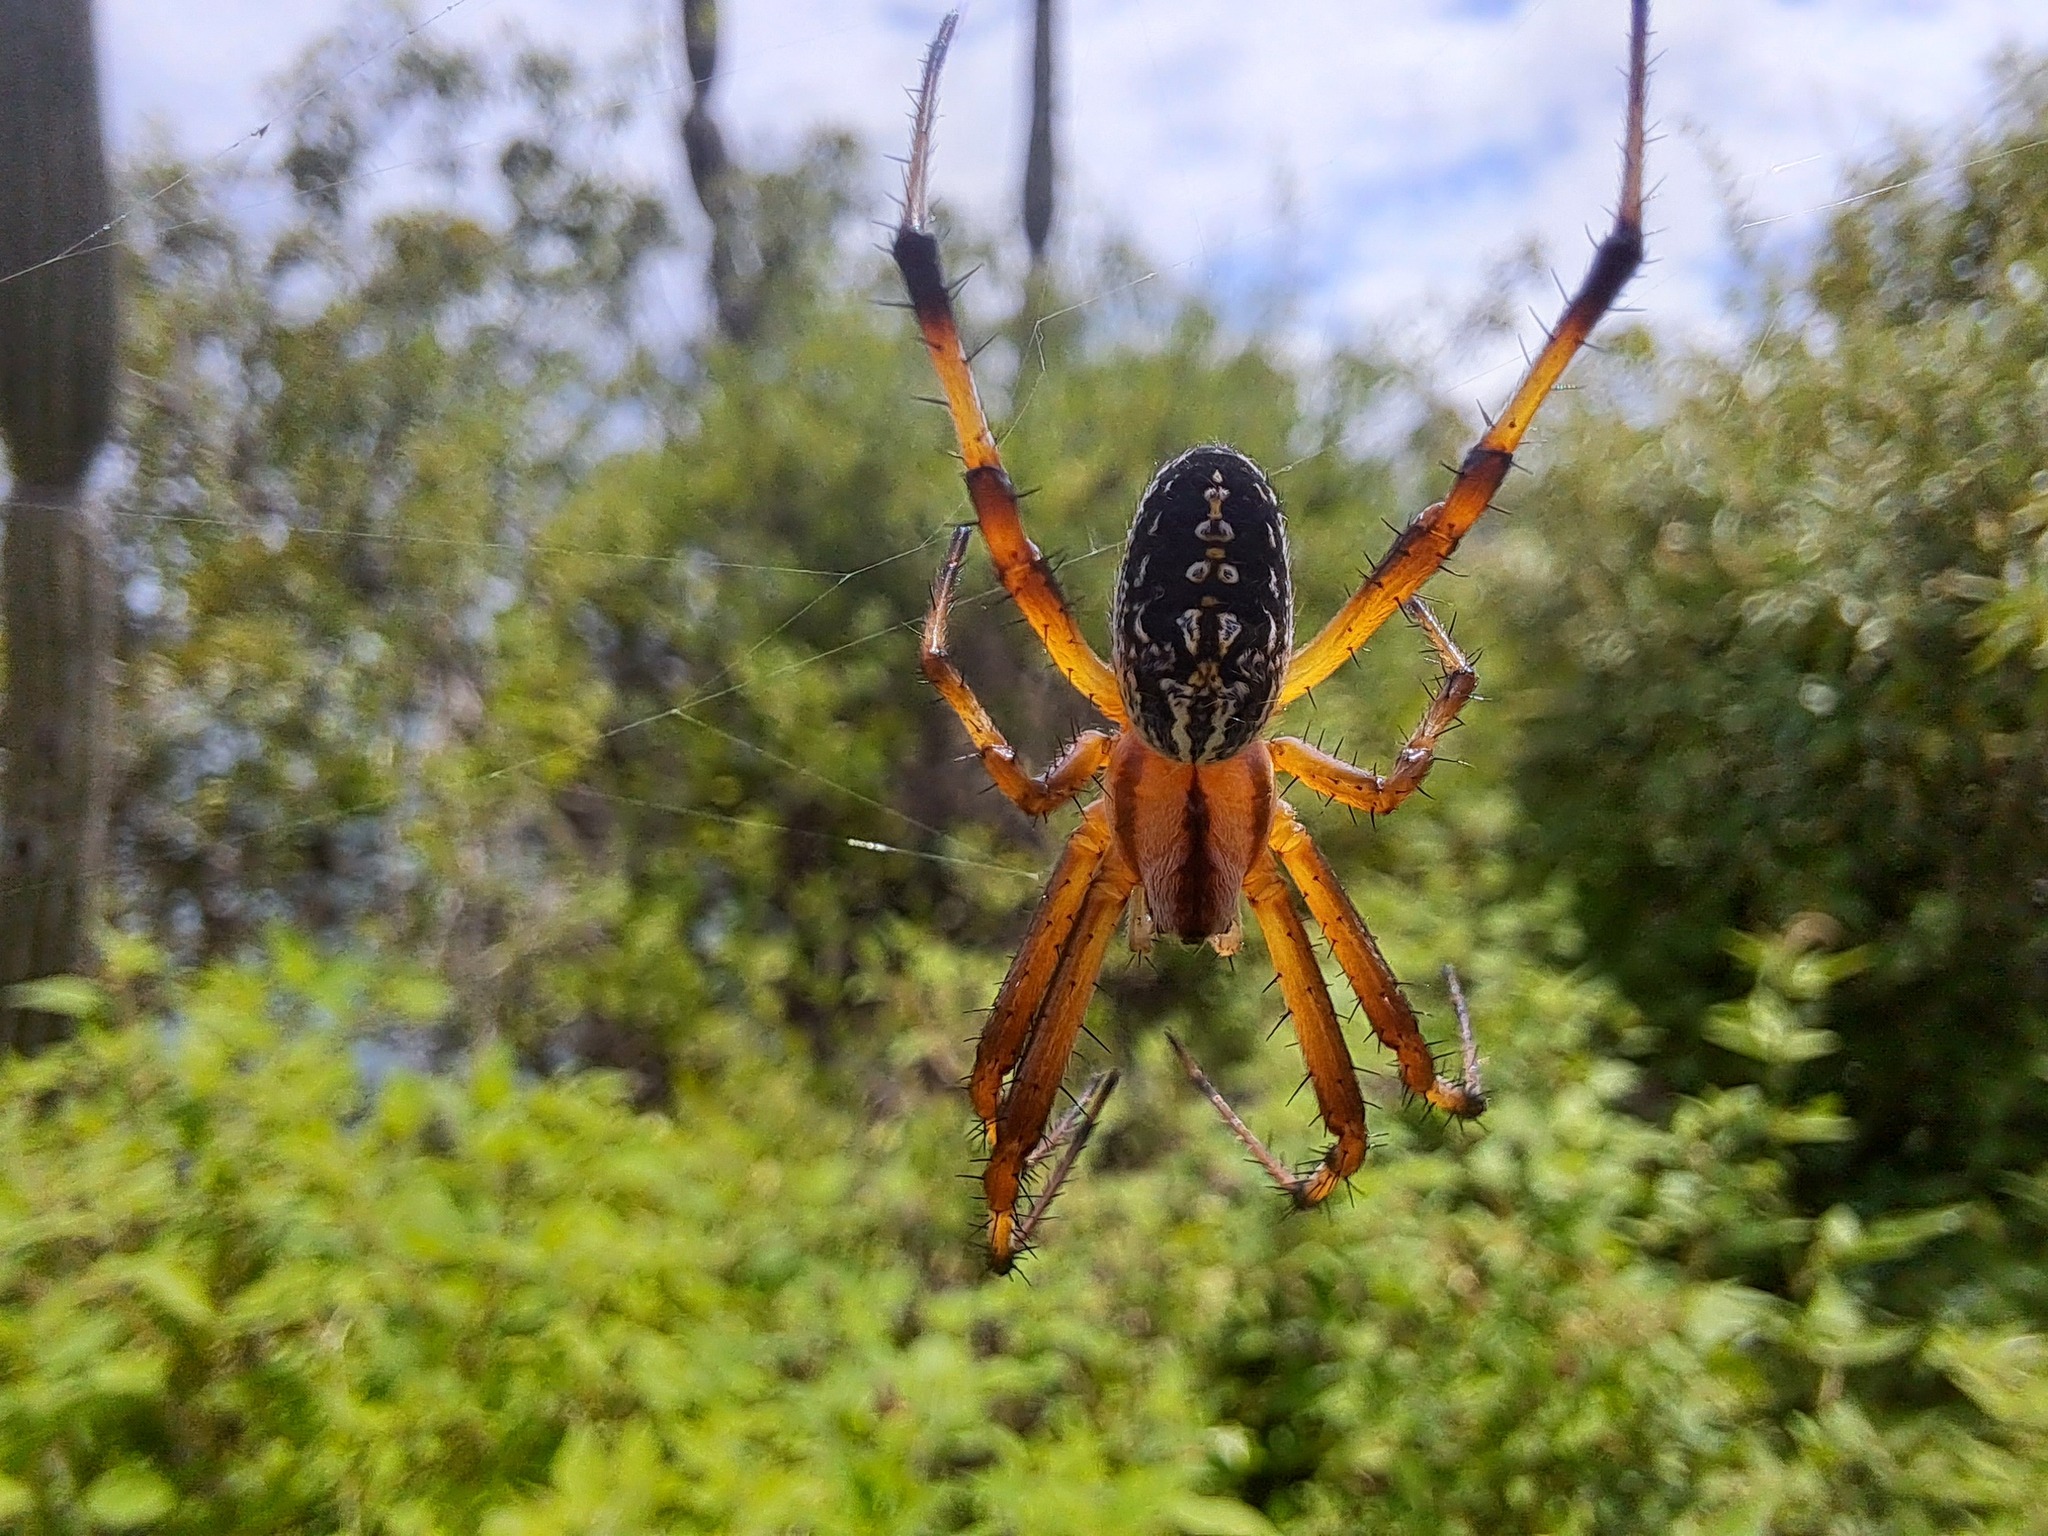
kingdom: Animalia
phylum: Arthropoda
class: Arachnida
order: Araneae
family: Araneidae
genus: Neoscona
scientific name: Neoscona oaxacensis
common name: Orb weavers
